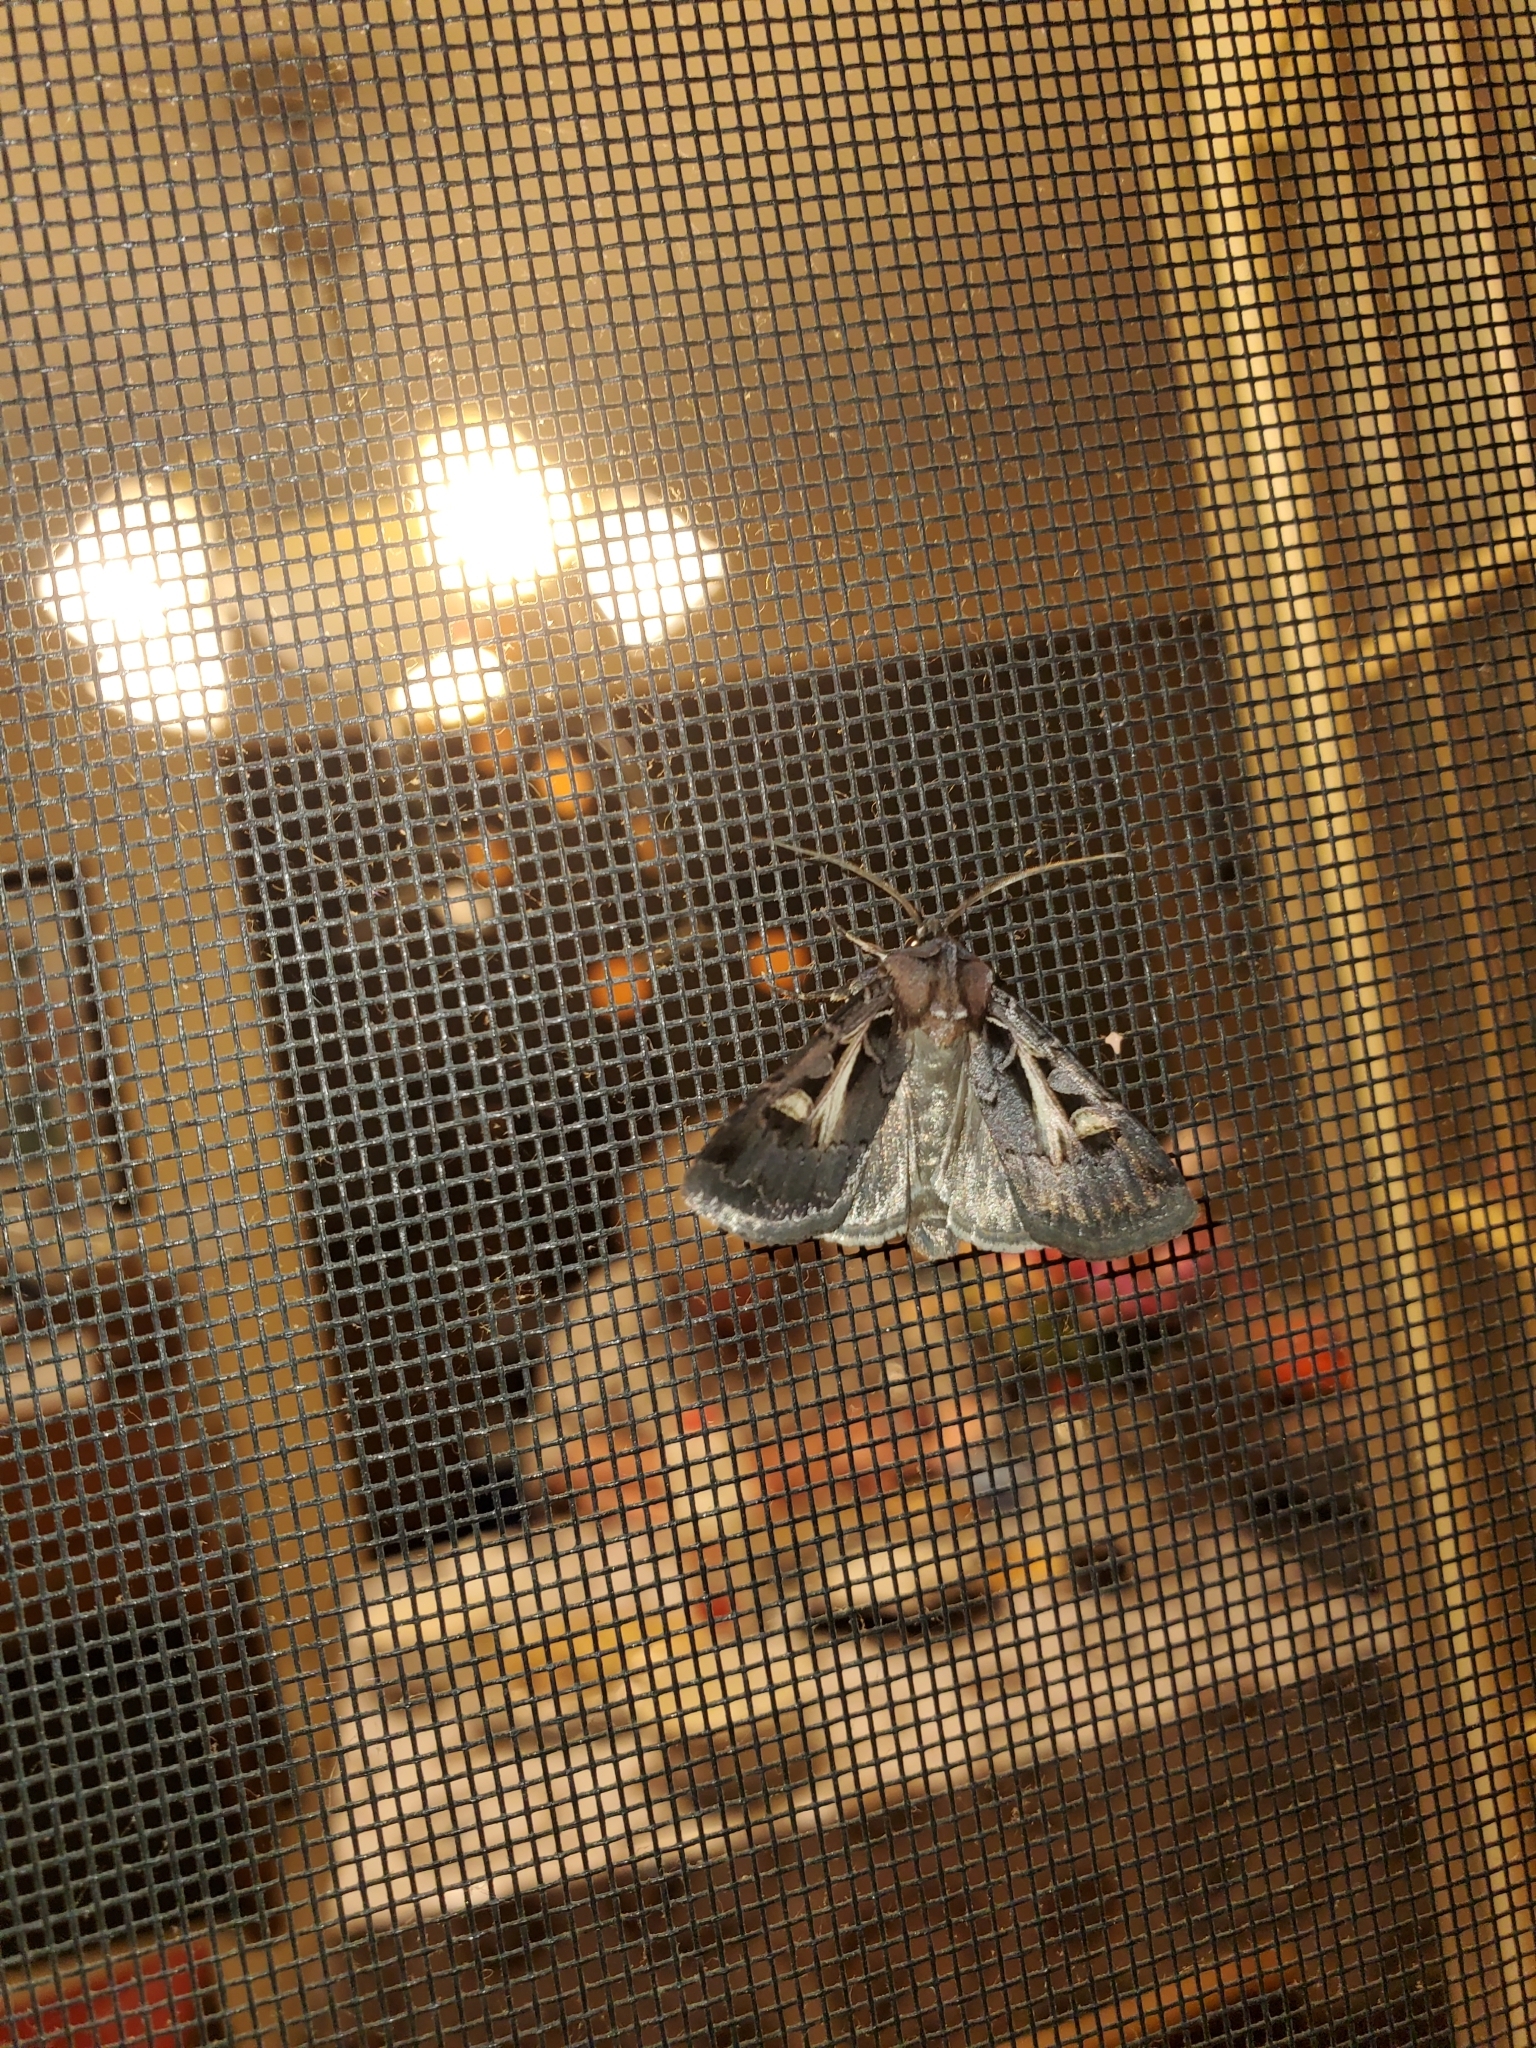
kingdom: Animalia
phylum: Arthropoda
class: Insecta
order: Lepidoptera
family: Noctuidae
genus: Feltia
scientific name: Feltia herilis
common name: Master's dart
